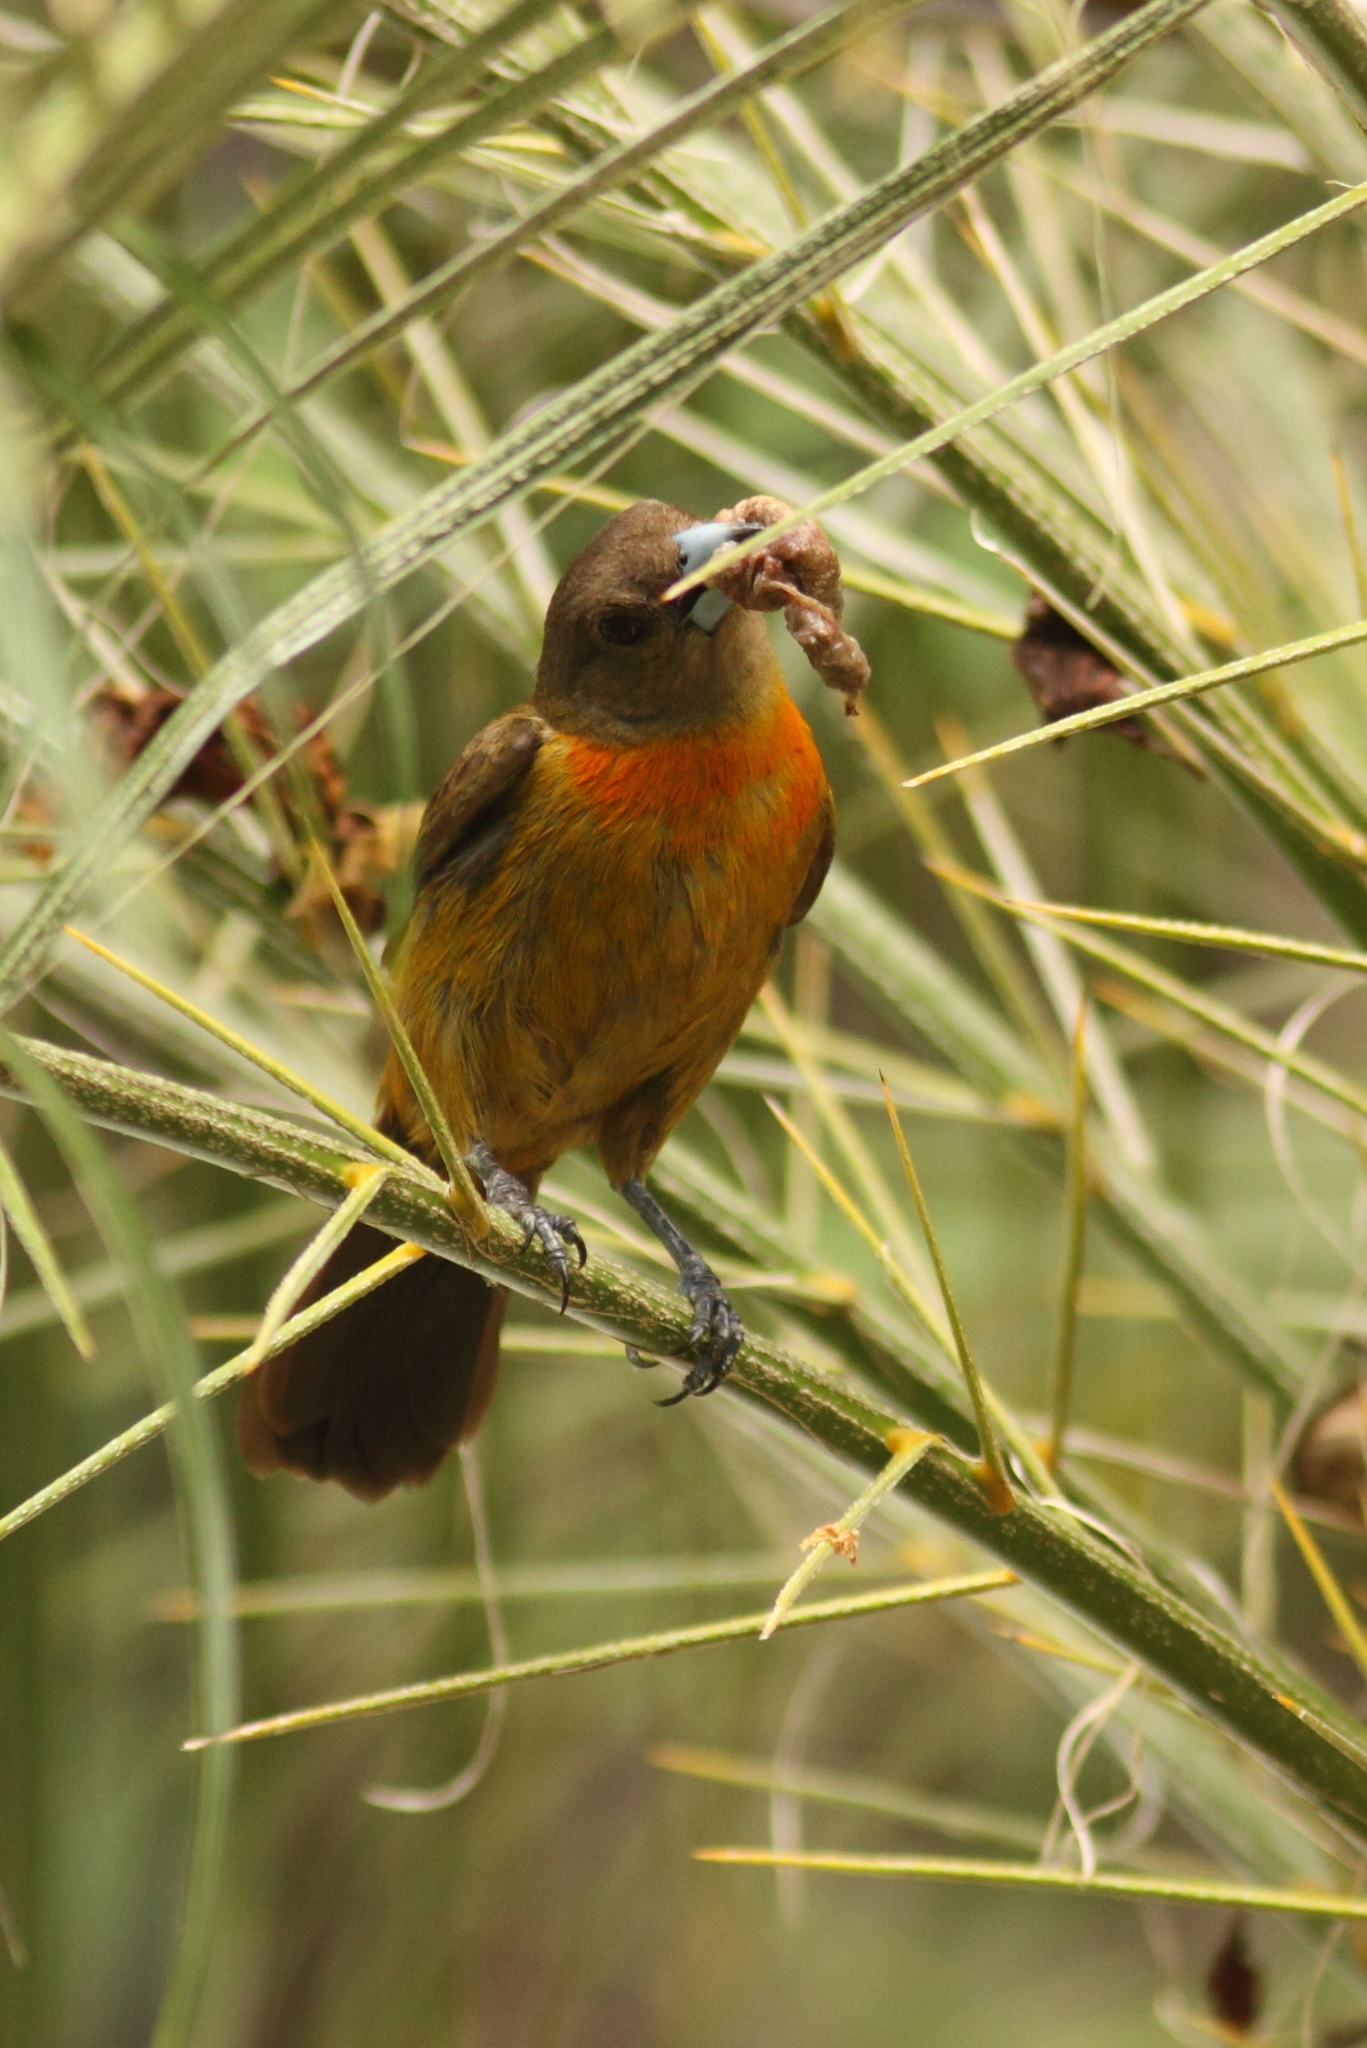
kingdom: Animalia
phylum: Chordata
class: Aves
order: Passeriformes
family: Thraupidae
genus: Ramphocelus
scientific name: Ramphocelus passerinii
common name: Passerini's tanager
